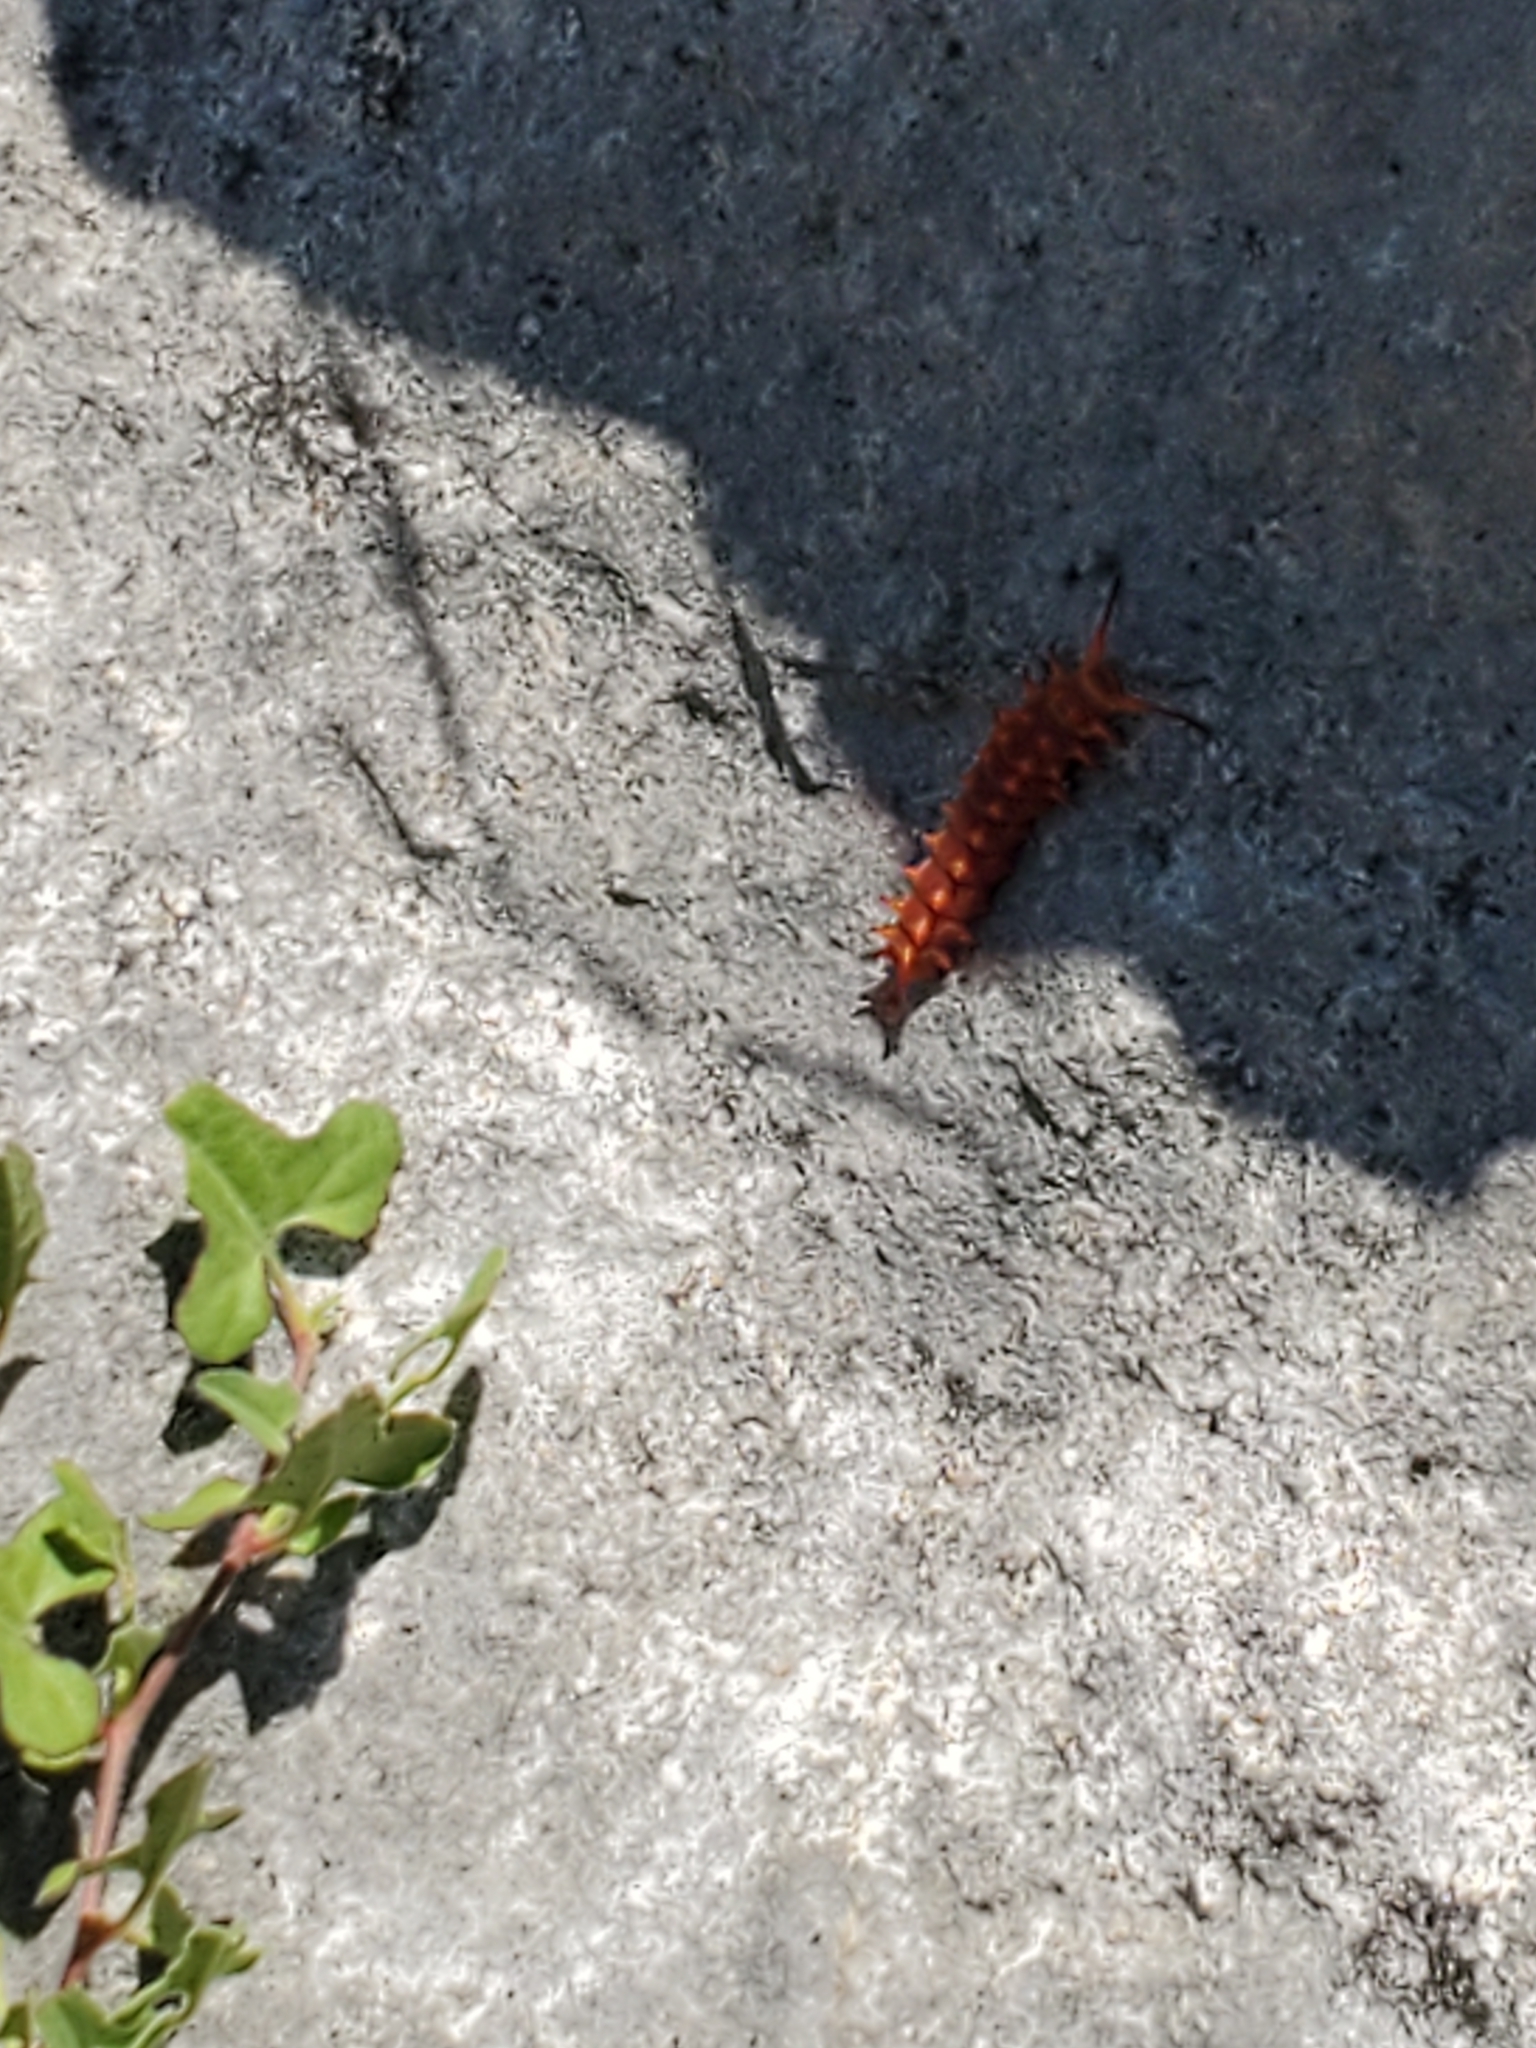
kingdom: Animalia
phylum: Arthropoda
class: Insecta
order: Lepidoptera
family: Papilionidae
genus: Battus
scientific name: Battus philenor
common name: Pipevine swallowtail
